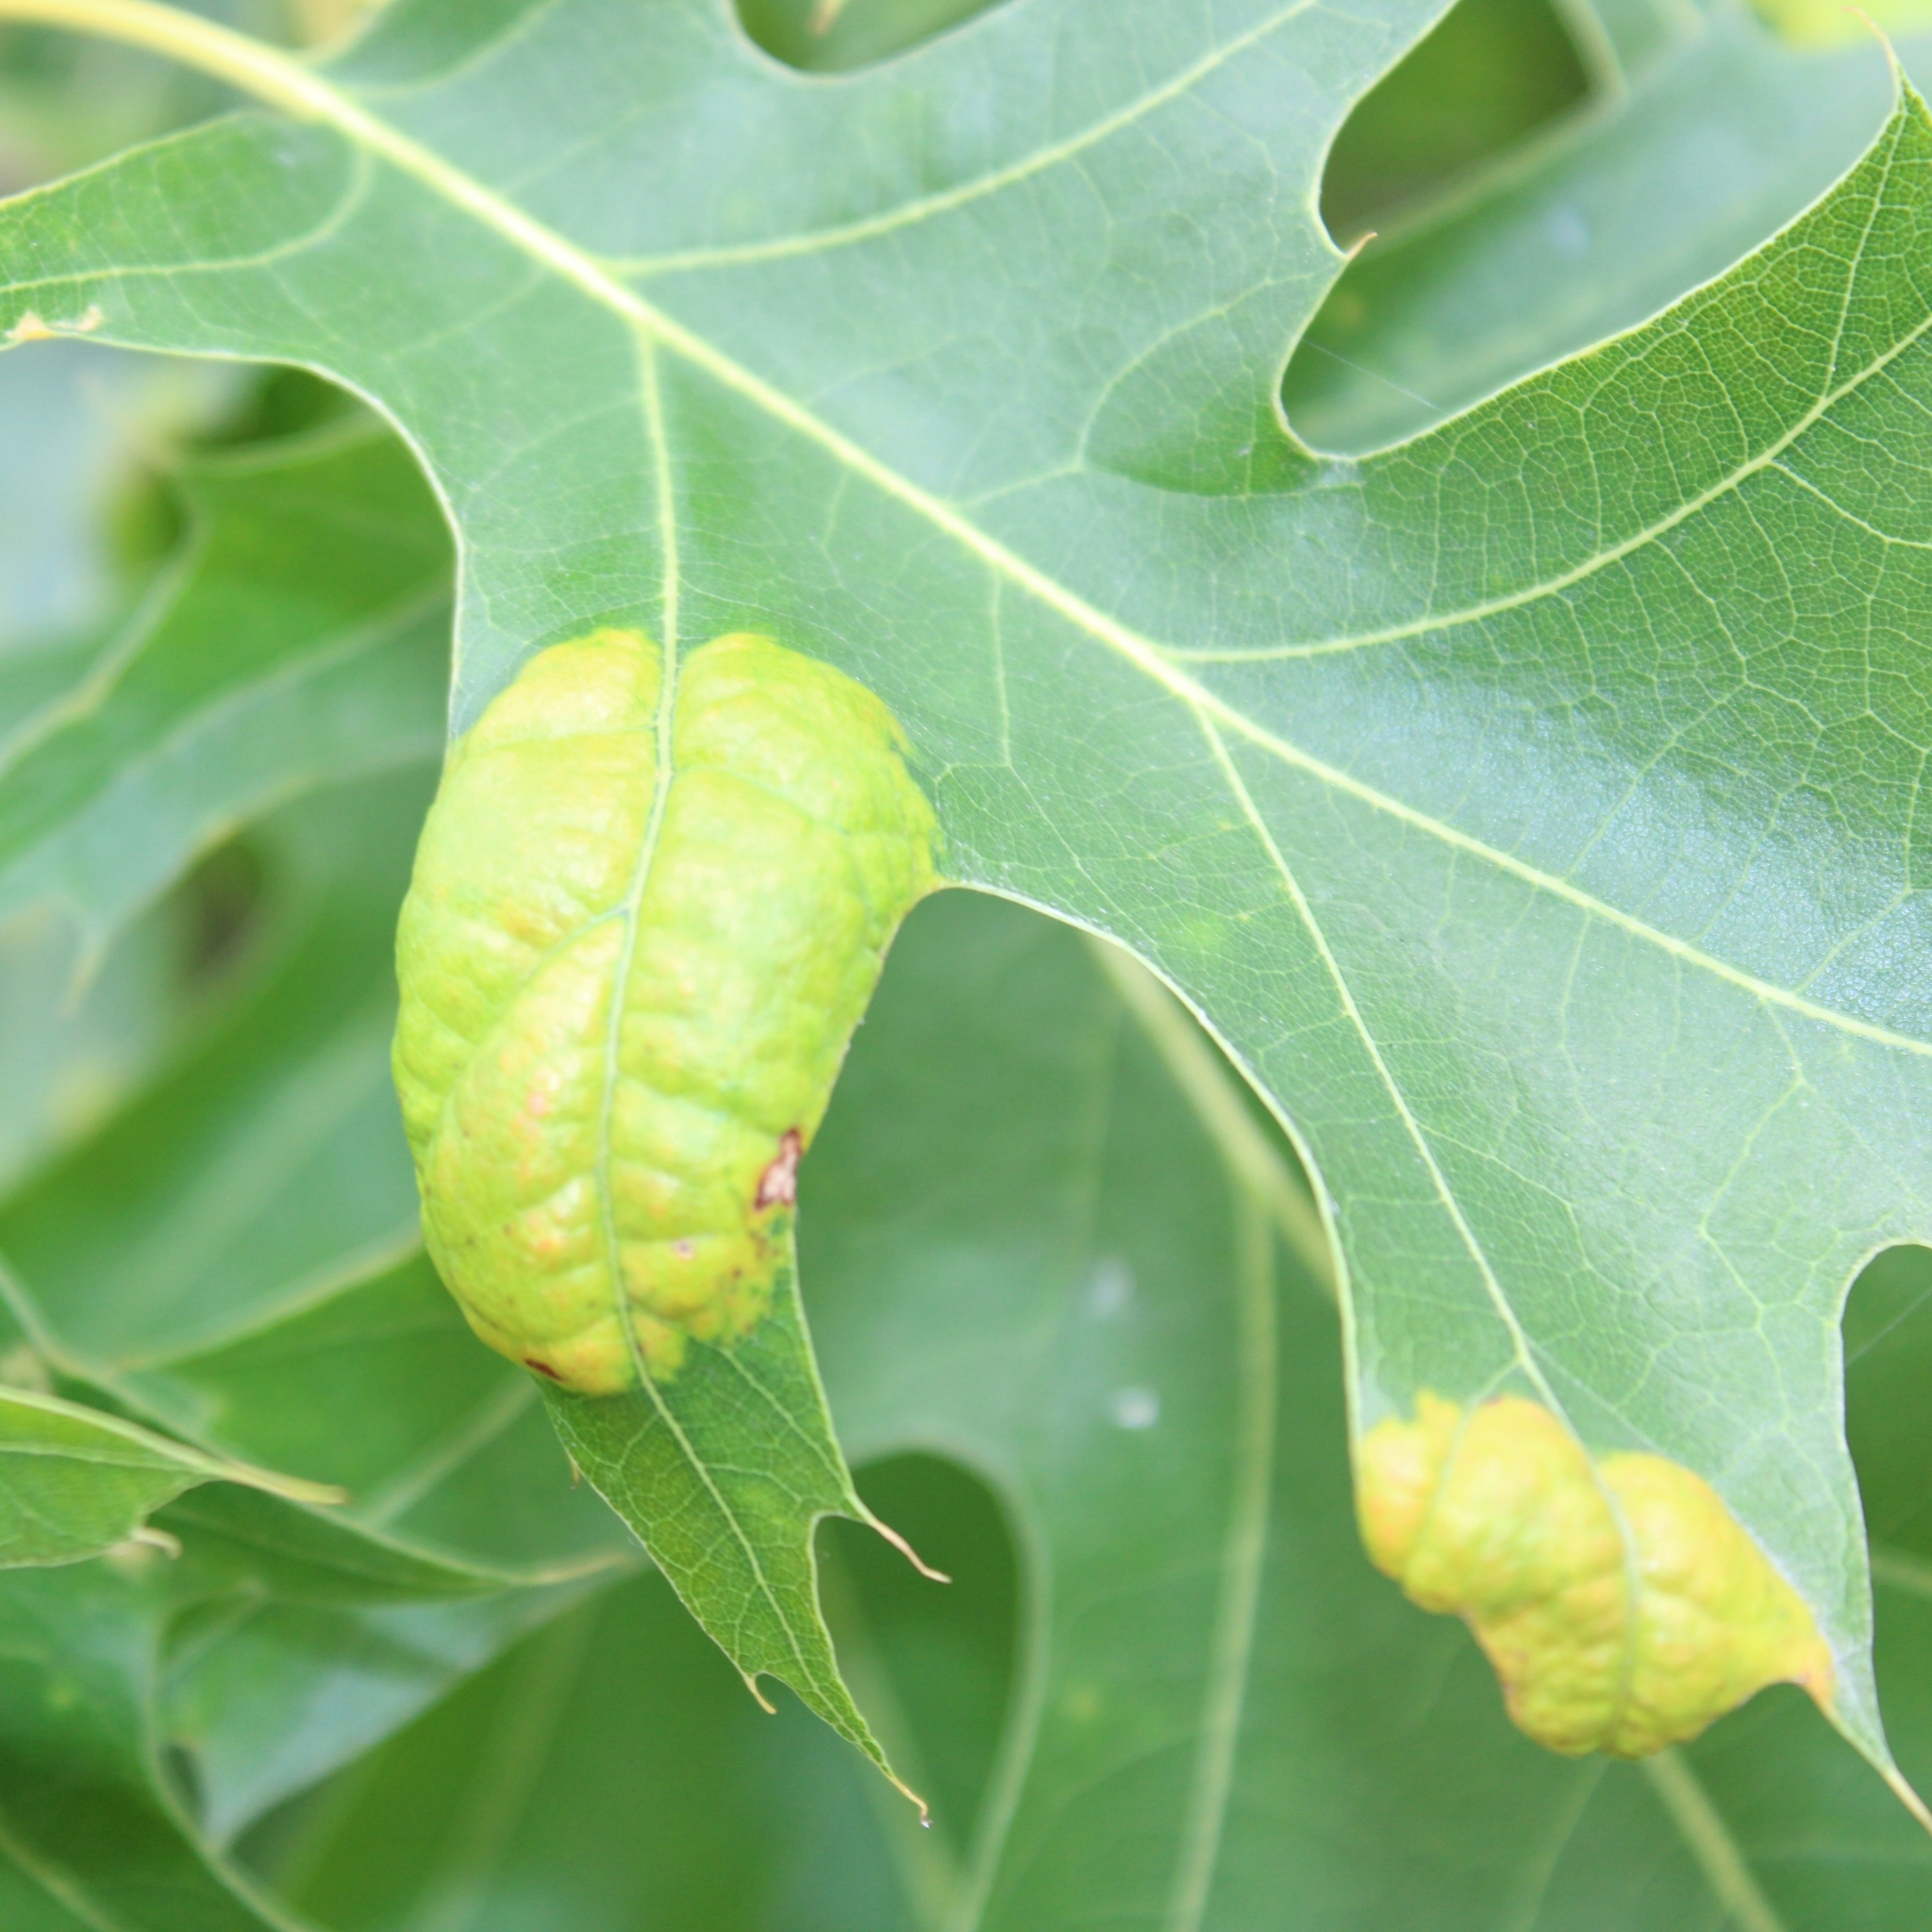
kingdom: Fungi
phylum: Ascomycota
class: Taphrinomycetes
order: Taphrinales
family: Taphrinaceae
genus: Taphrina
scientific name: Taphrina caerulescens
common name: Oak leaf blister
